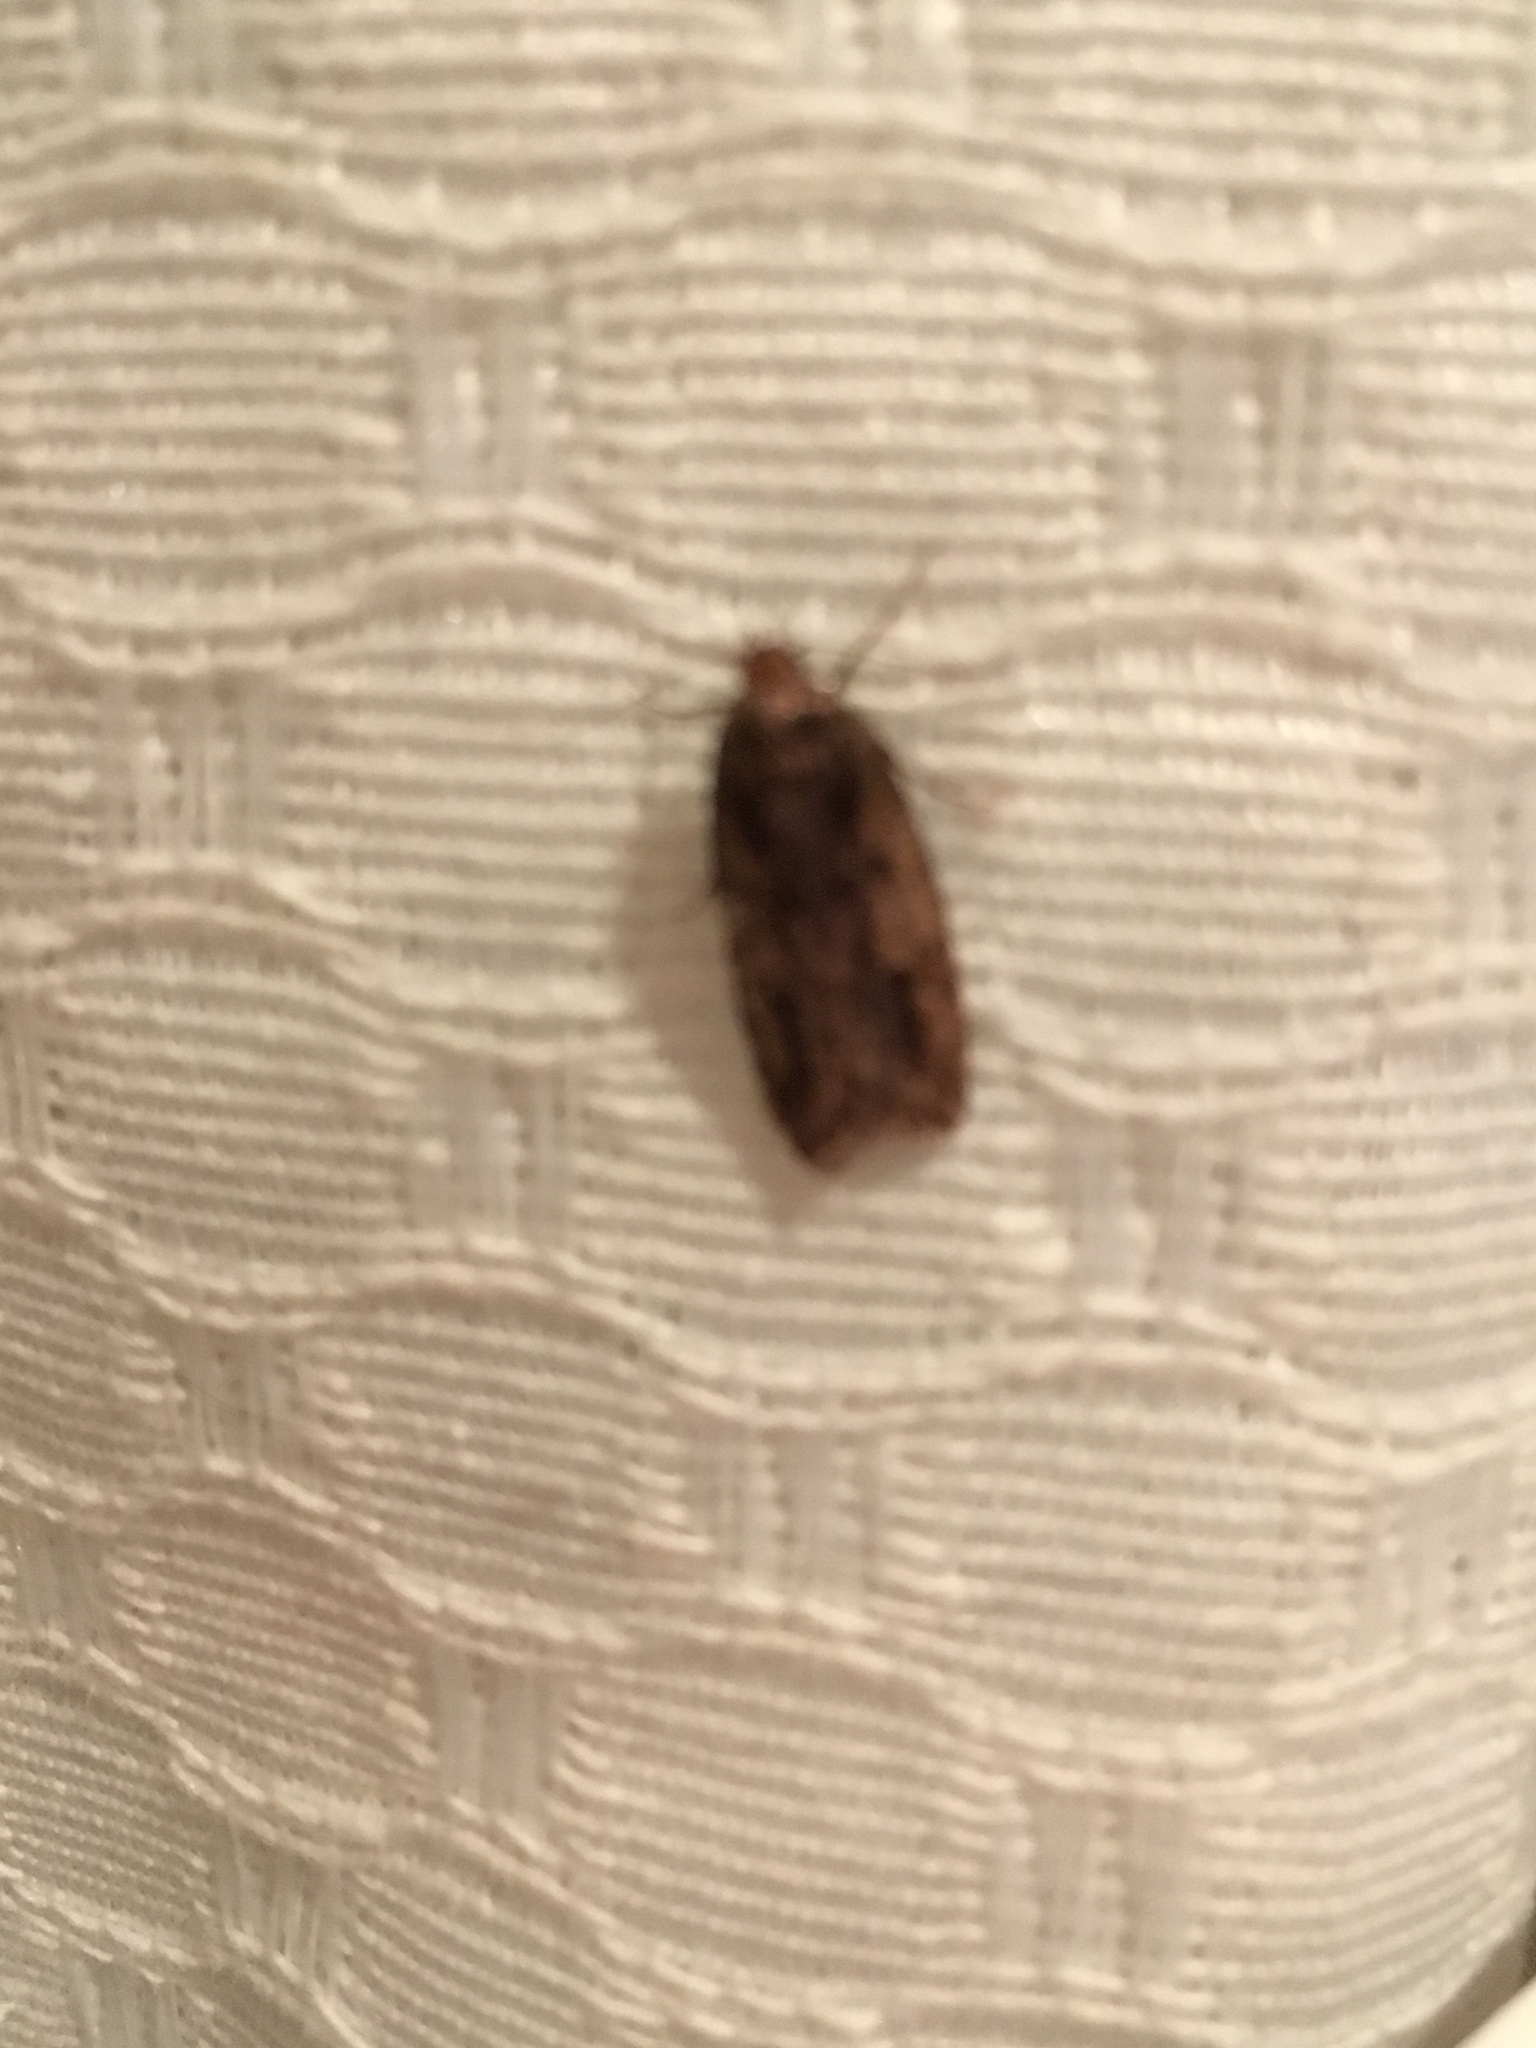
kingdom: Animalia
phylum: Arthropoda
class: Insecta
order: Lepidoptera
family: Oecophoridae
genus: Hofmannophila
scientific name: Hofmannophila pseudospretella
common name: Brown house moth
